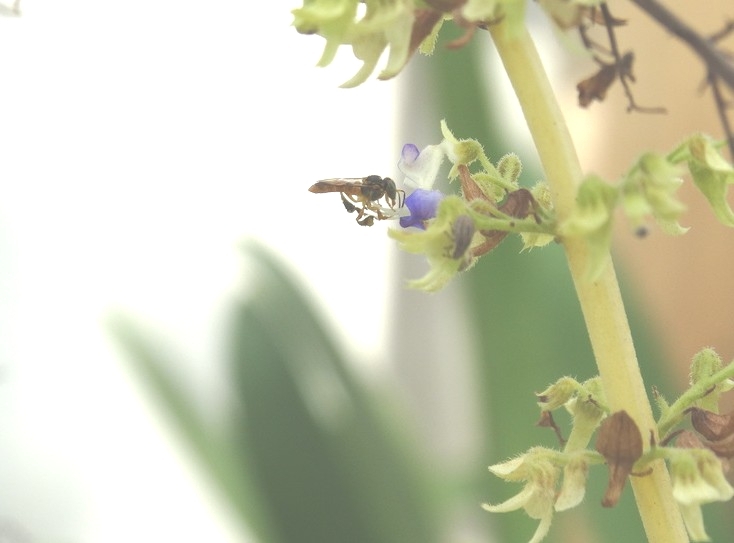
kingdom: Animalia
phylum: Arthropoda
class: Insecta
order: Hymenoptera
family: Apidae
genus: Tetragonisca
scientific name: Tetragonisca angustula
